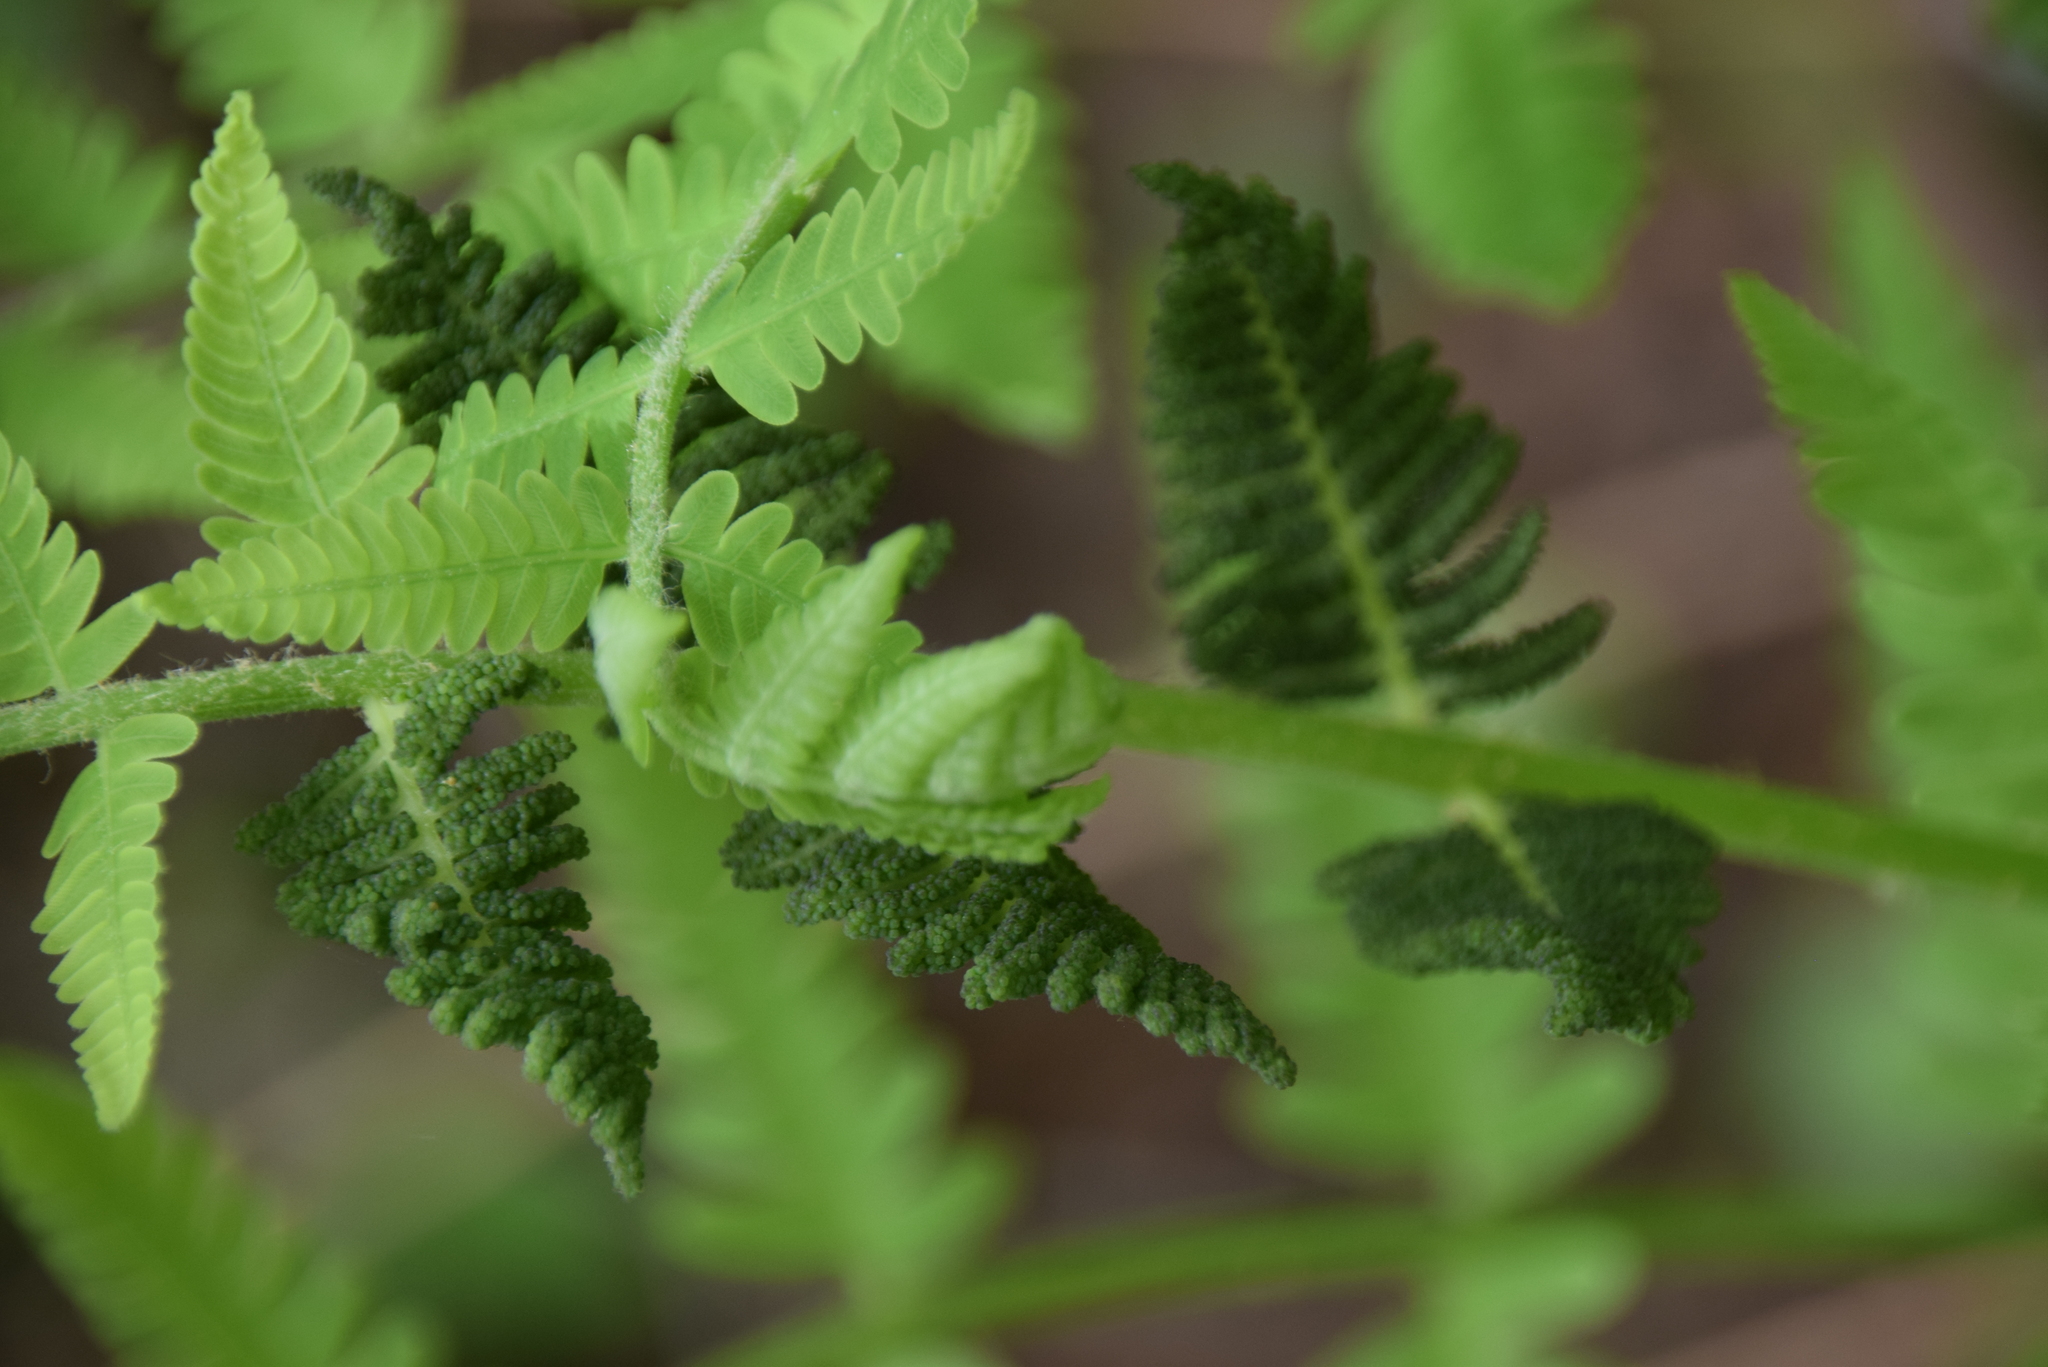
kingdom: Plantae
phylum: Tracheophyta
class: Polypodiopsida
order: Osmundales
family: Osmundaceae
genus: Claytosmunda
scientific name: Claytosmunda claytoniana
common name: Clayton's fern
